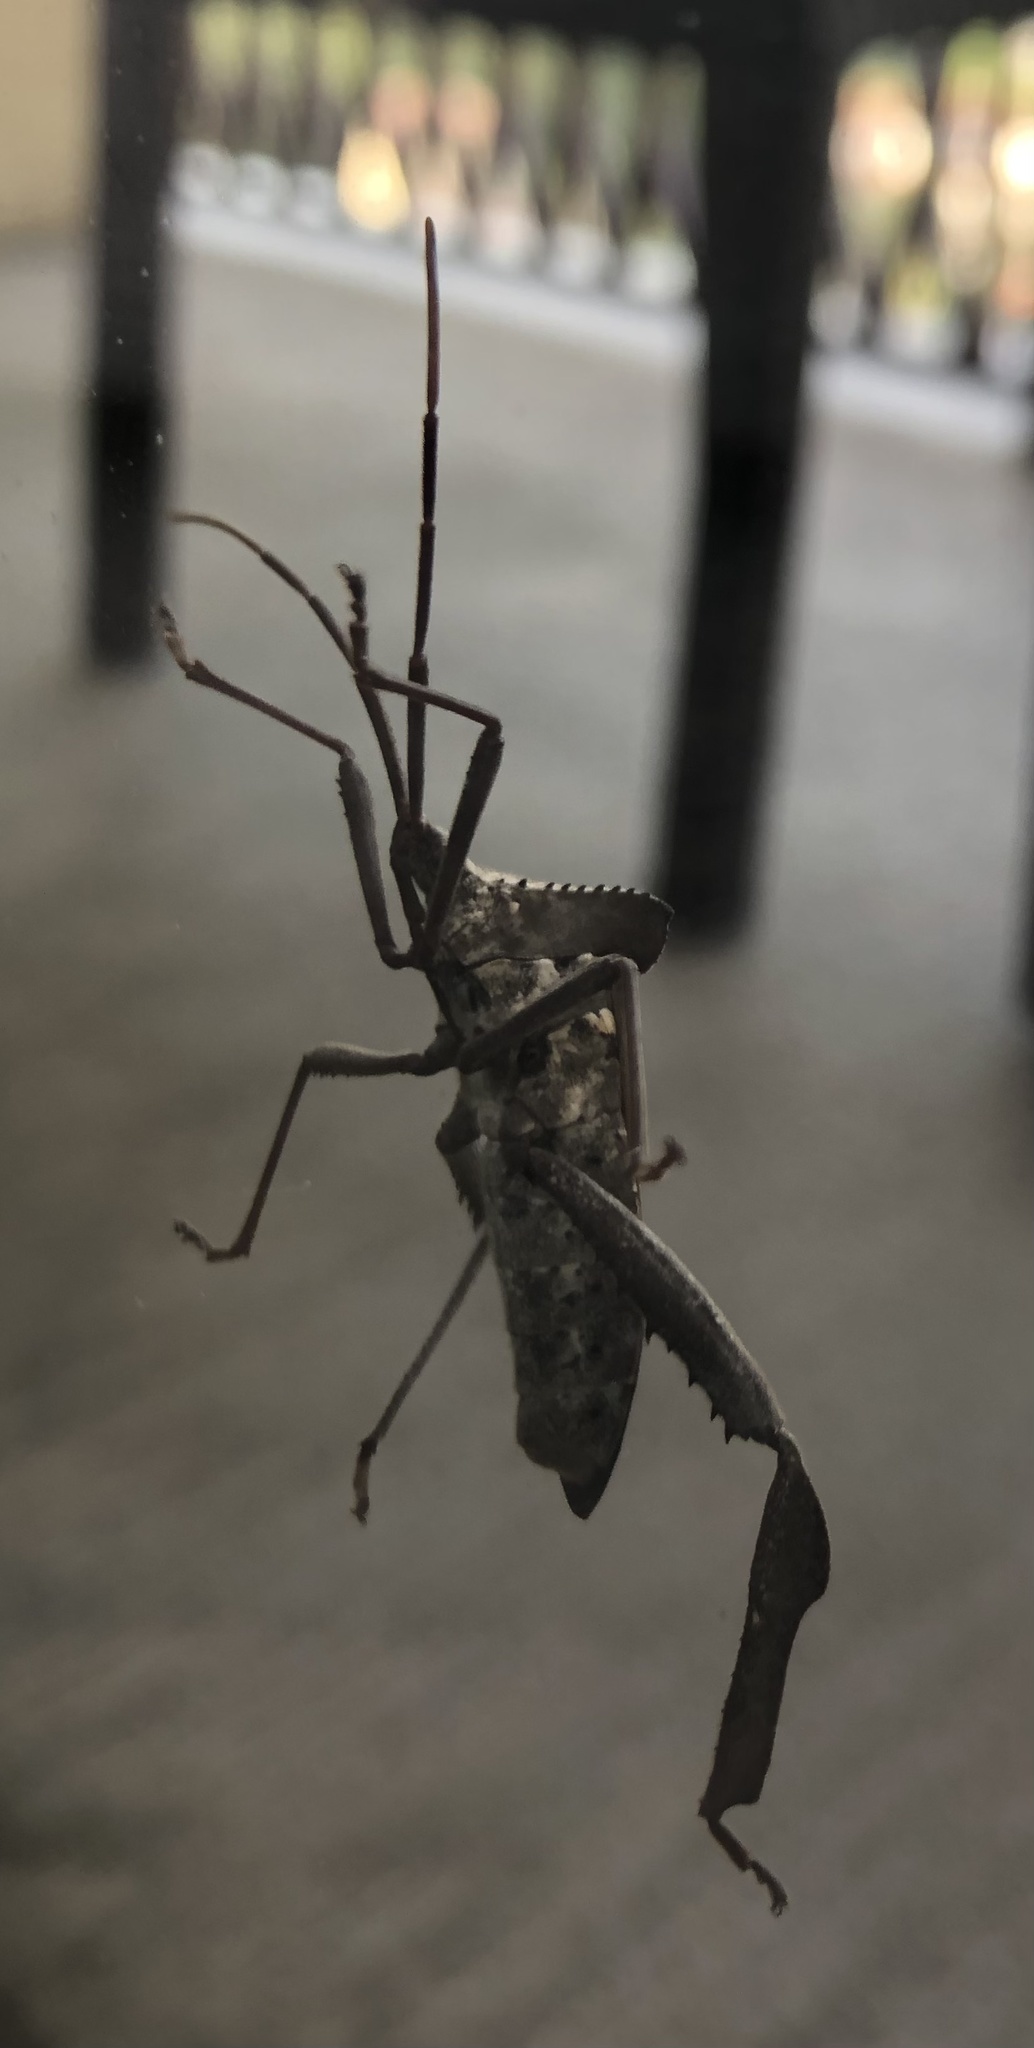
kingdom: Animalia
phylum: Arthropoda
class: Insecta
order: Hemiptera
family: Coreidae
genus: Acanthocephala
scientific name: Acanthocephala declivis
